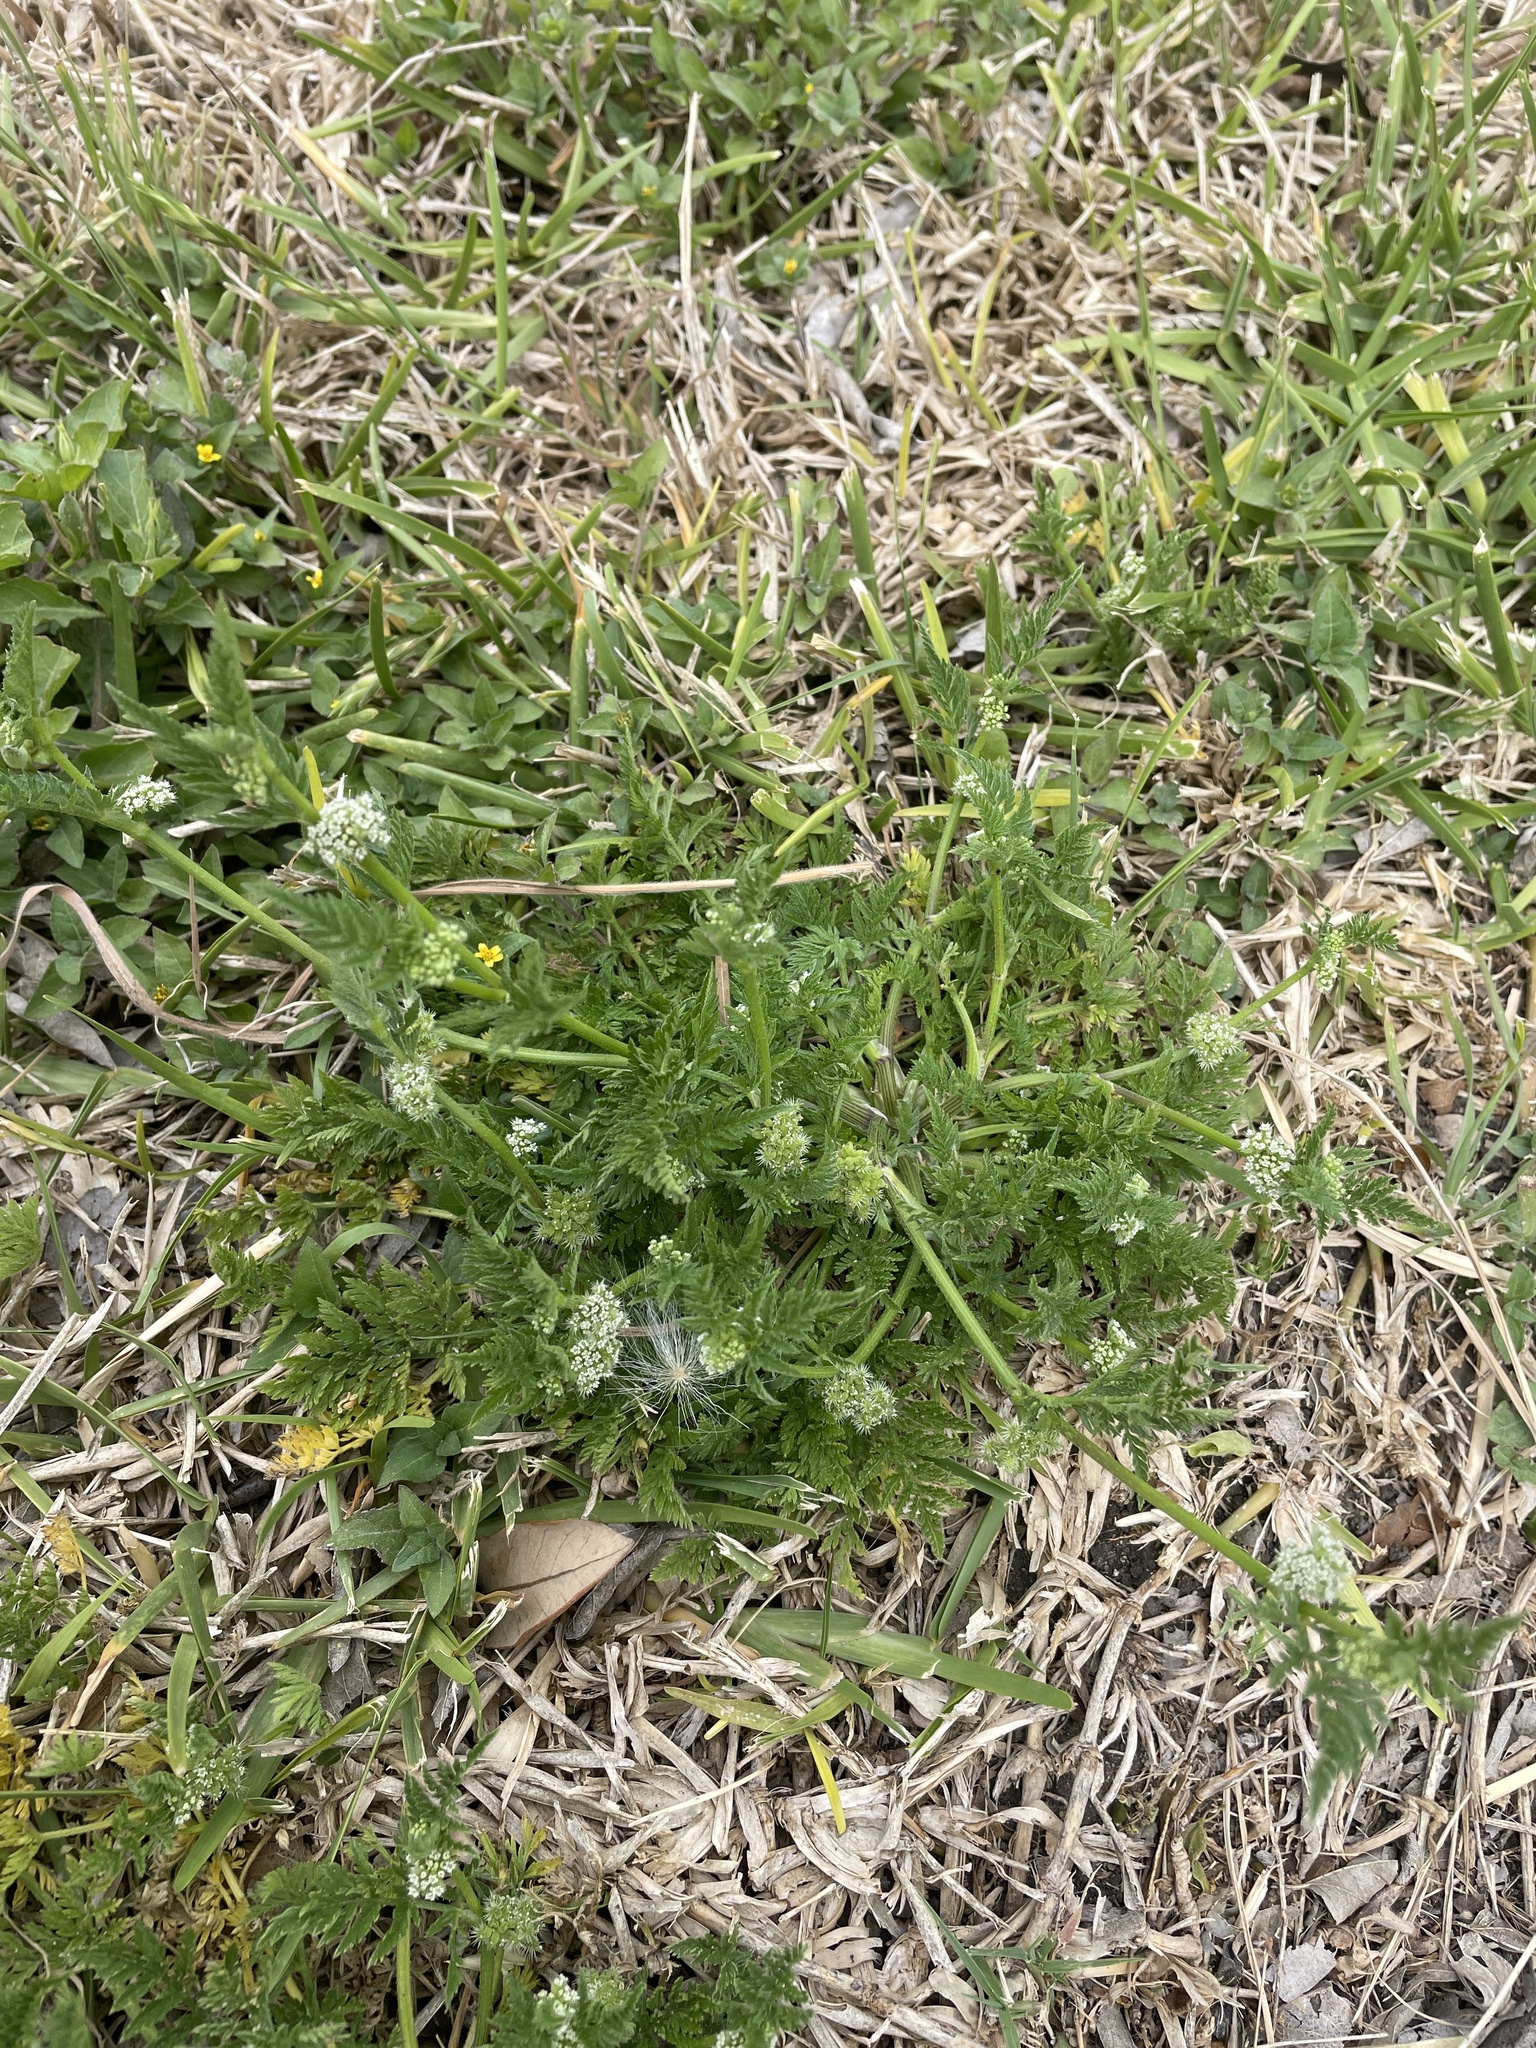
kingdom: Plantae
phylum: Tracheophyta
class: Magnoliopsida
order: Apiales
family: Apiaceae
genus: Torilis
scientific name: Torilis nodosa
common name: Knotted hedge-parsley
